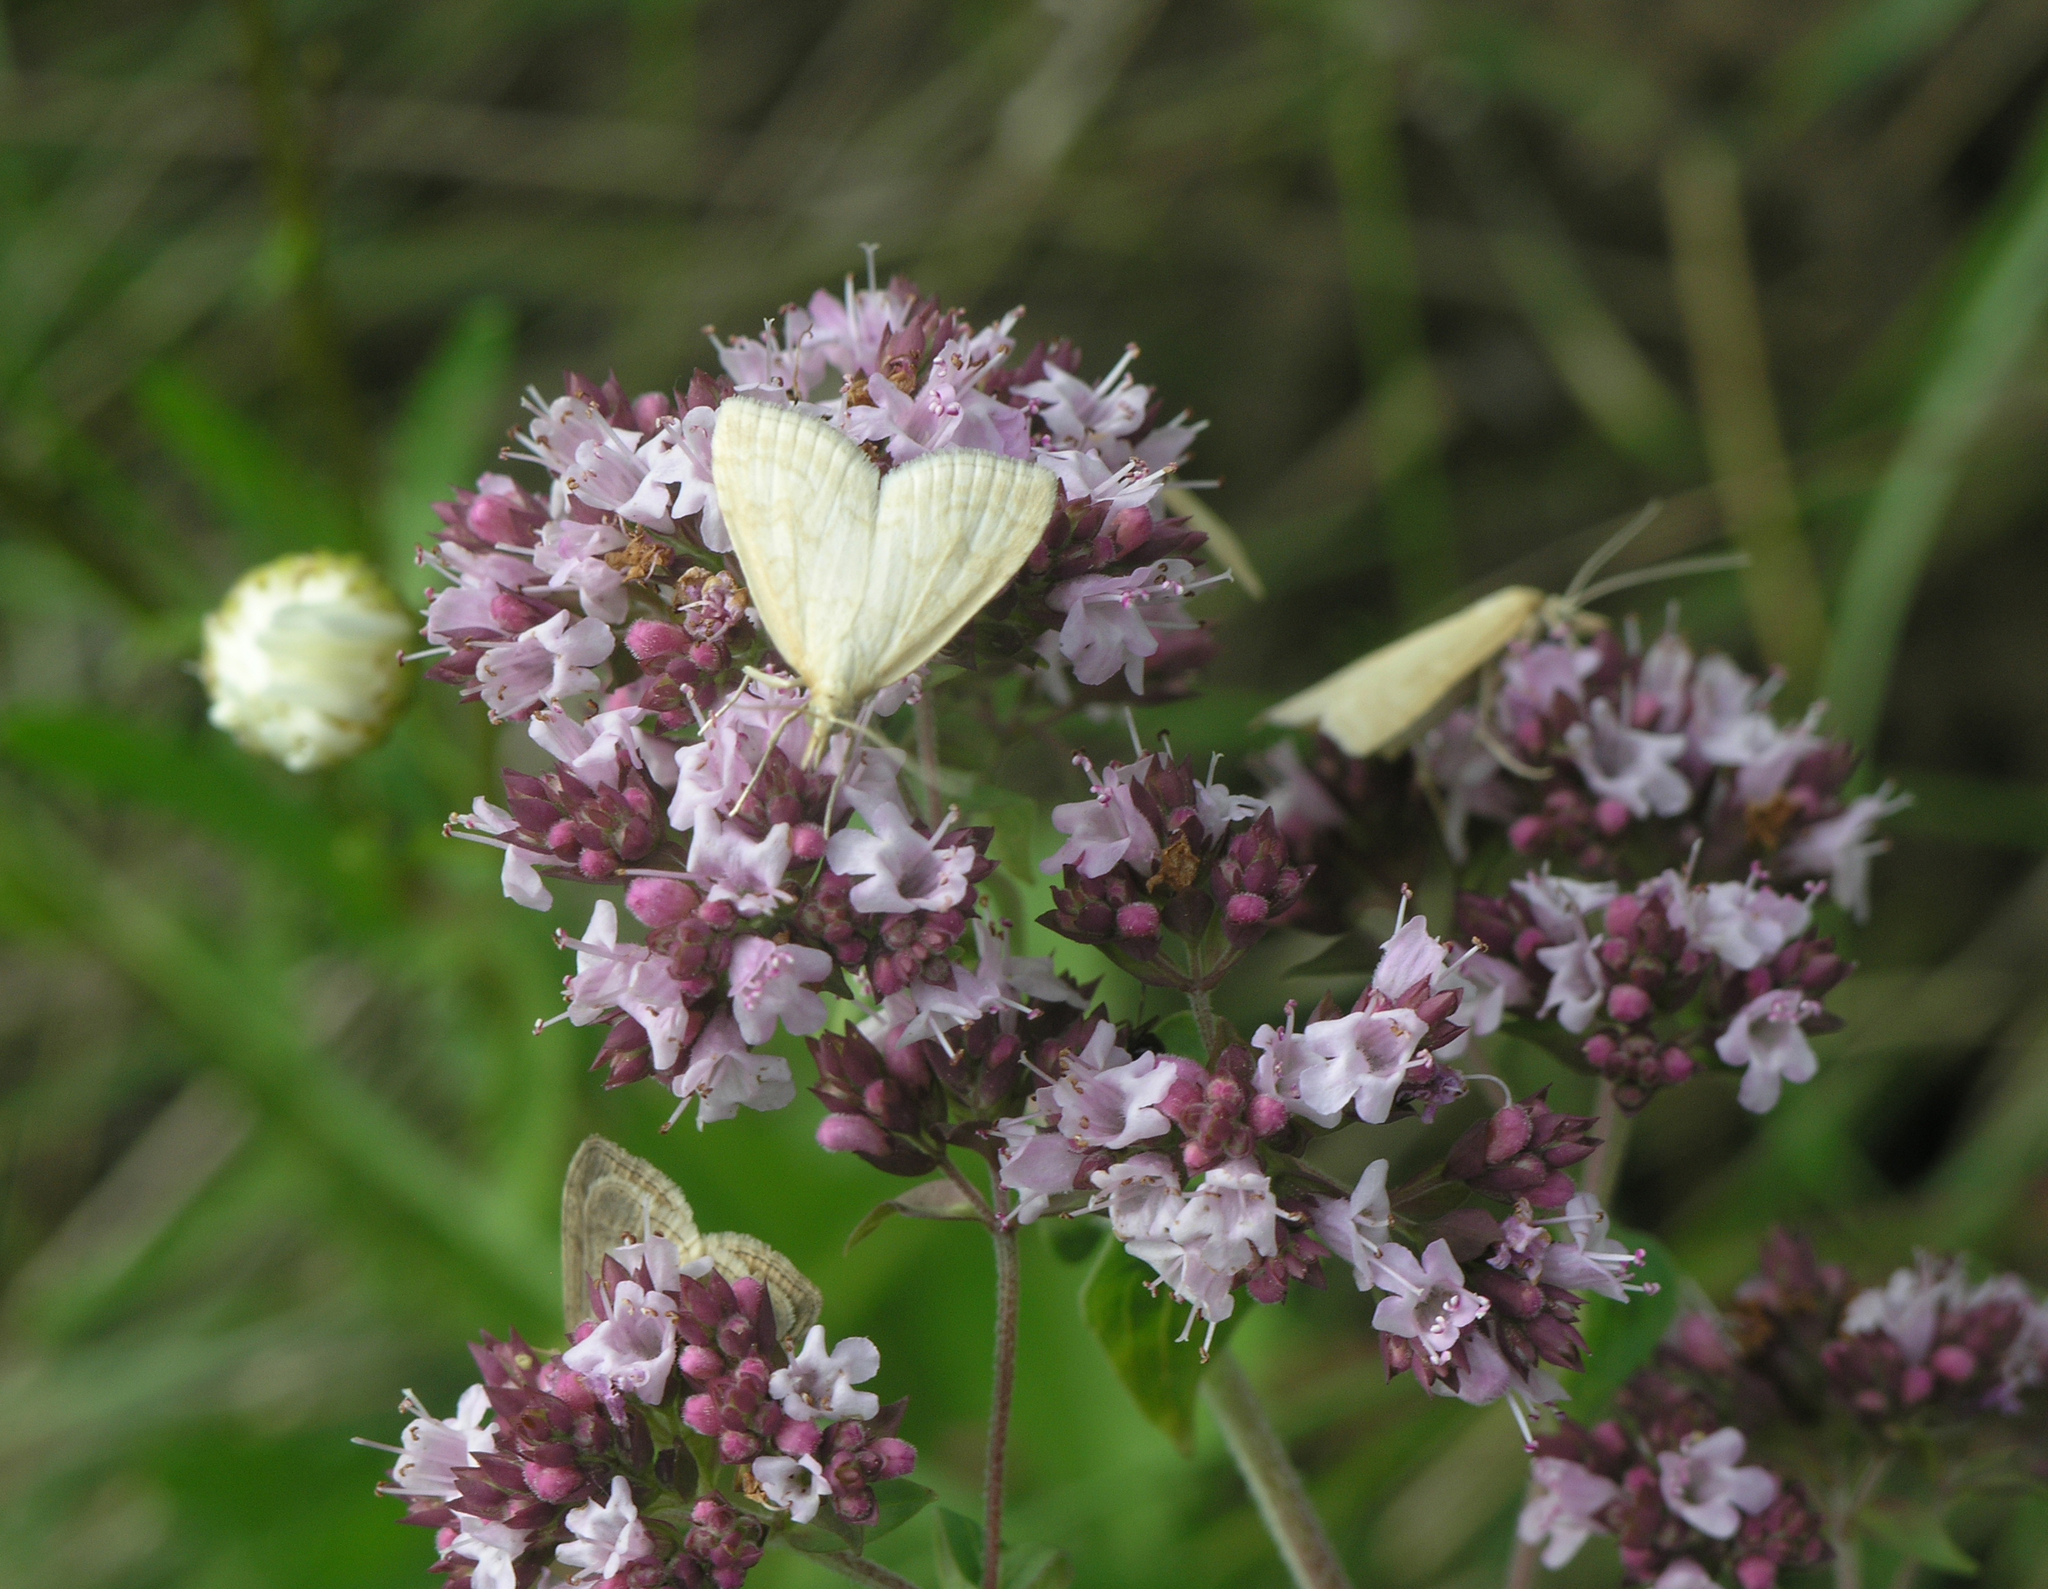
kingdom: Animalia
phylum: Arthropoda
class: Insecta
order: Lepidoptera
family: Crambidae
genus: Udea
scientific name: Udea lutealis
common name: Pale straw pearl
